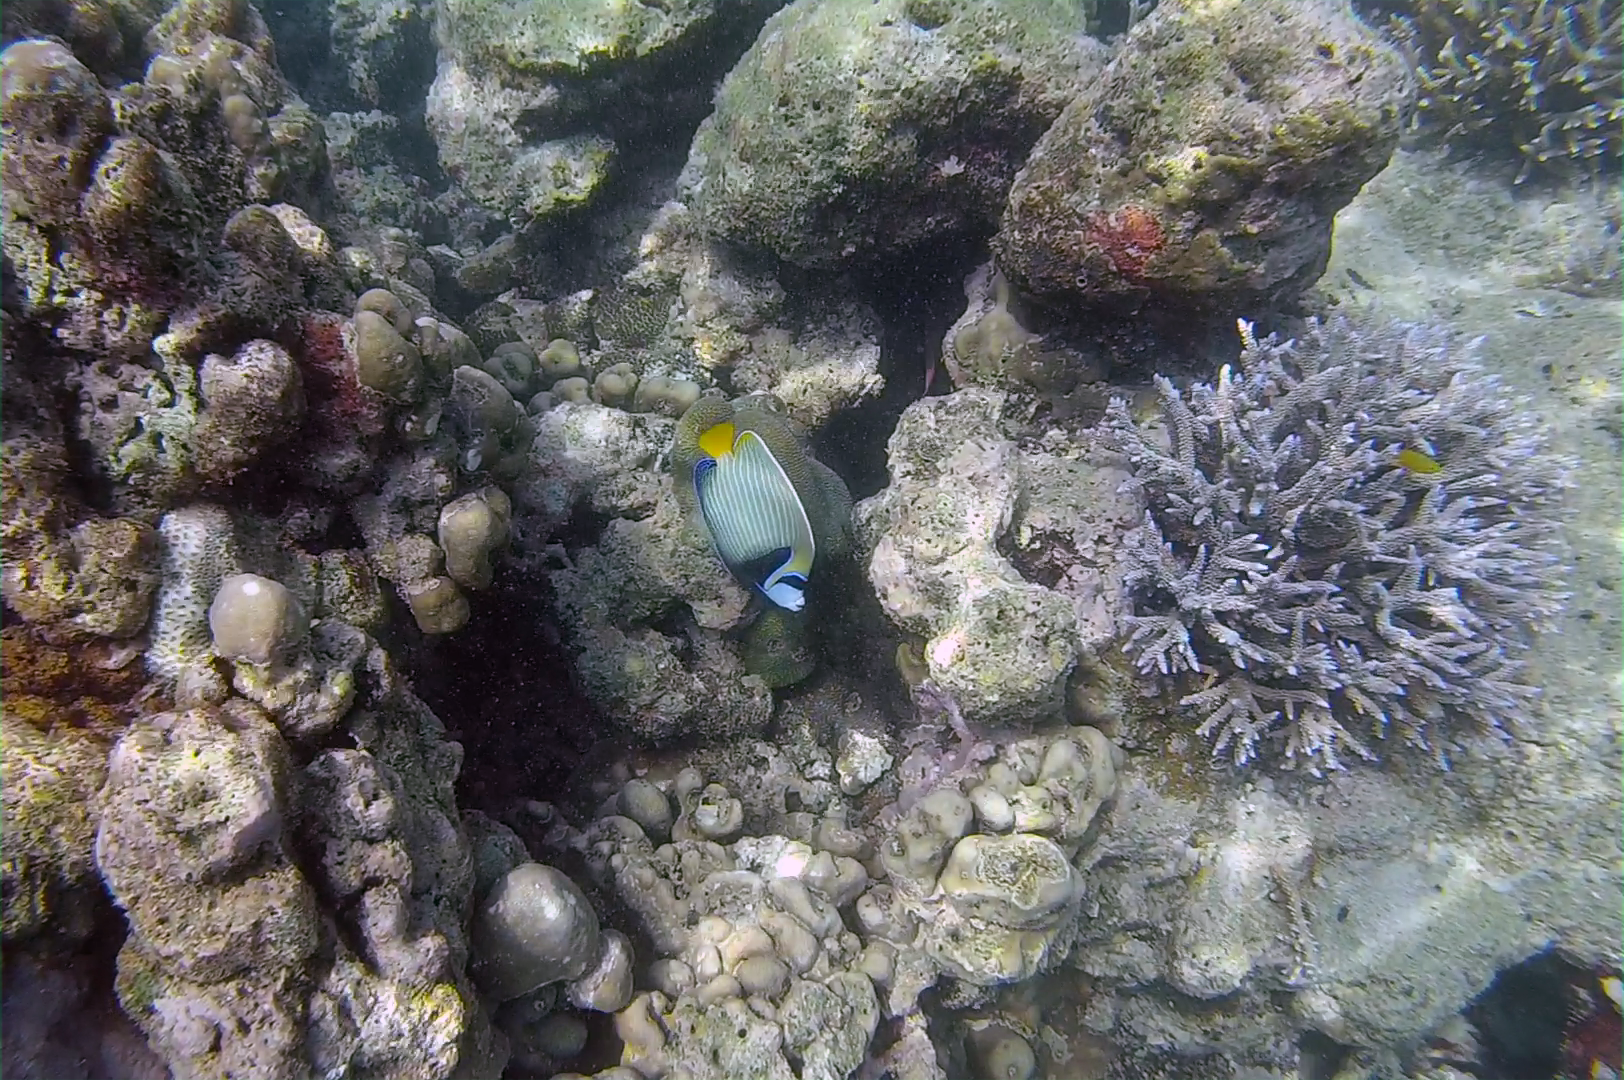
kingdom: Animalia
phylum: Chordata
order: Perciformes
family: Pomacanthidae
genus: Pomacanthus
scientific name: Pomacanthus imperator
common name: Emperor angelfish
